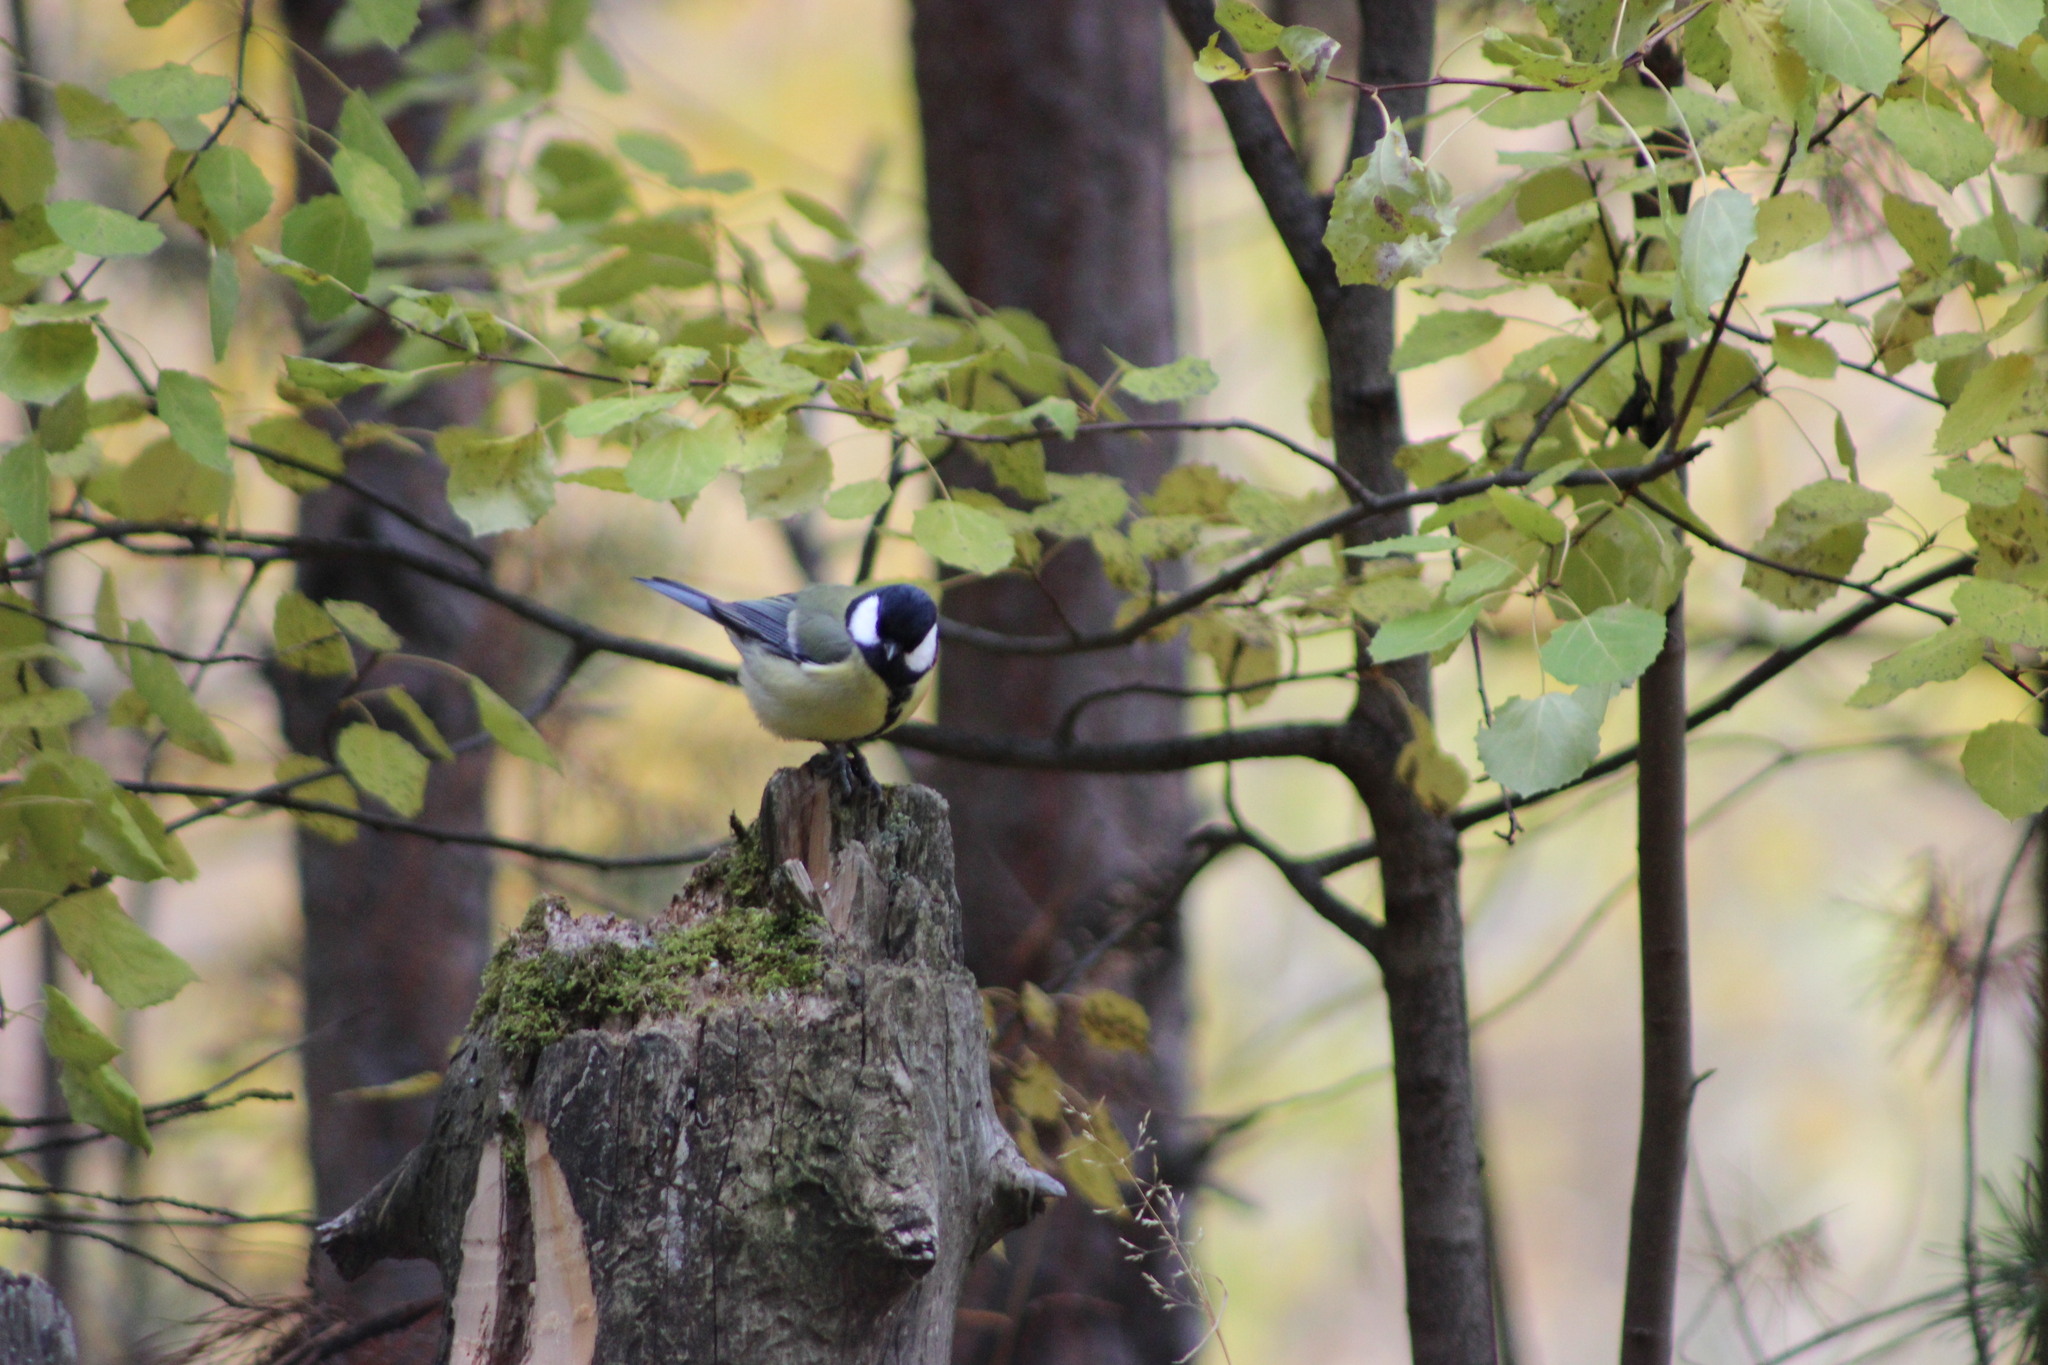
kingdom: Animalia
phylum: Chordata
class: Aves
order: Passeriformes
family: Paridae
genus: Parus
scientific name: Parus major
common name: Great tit
